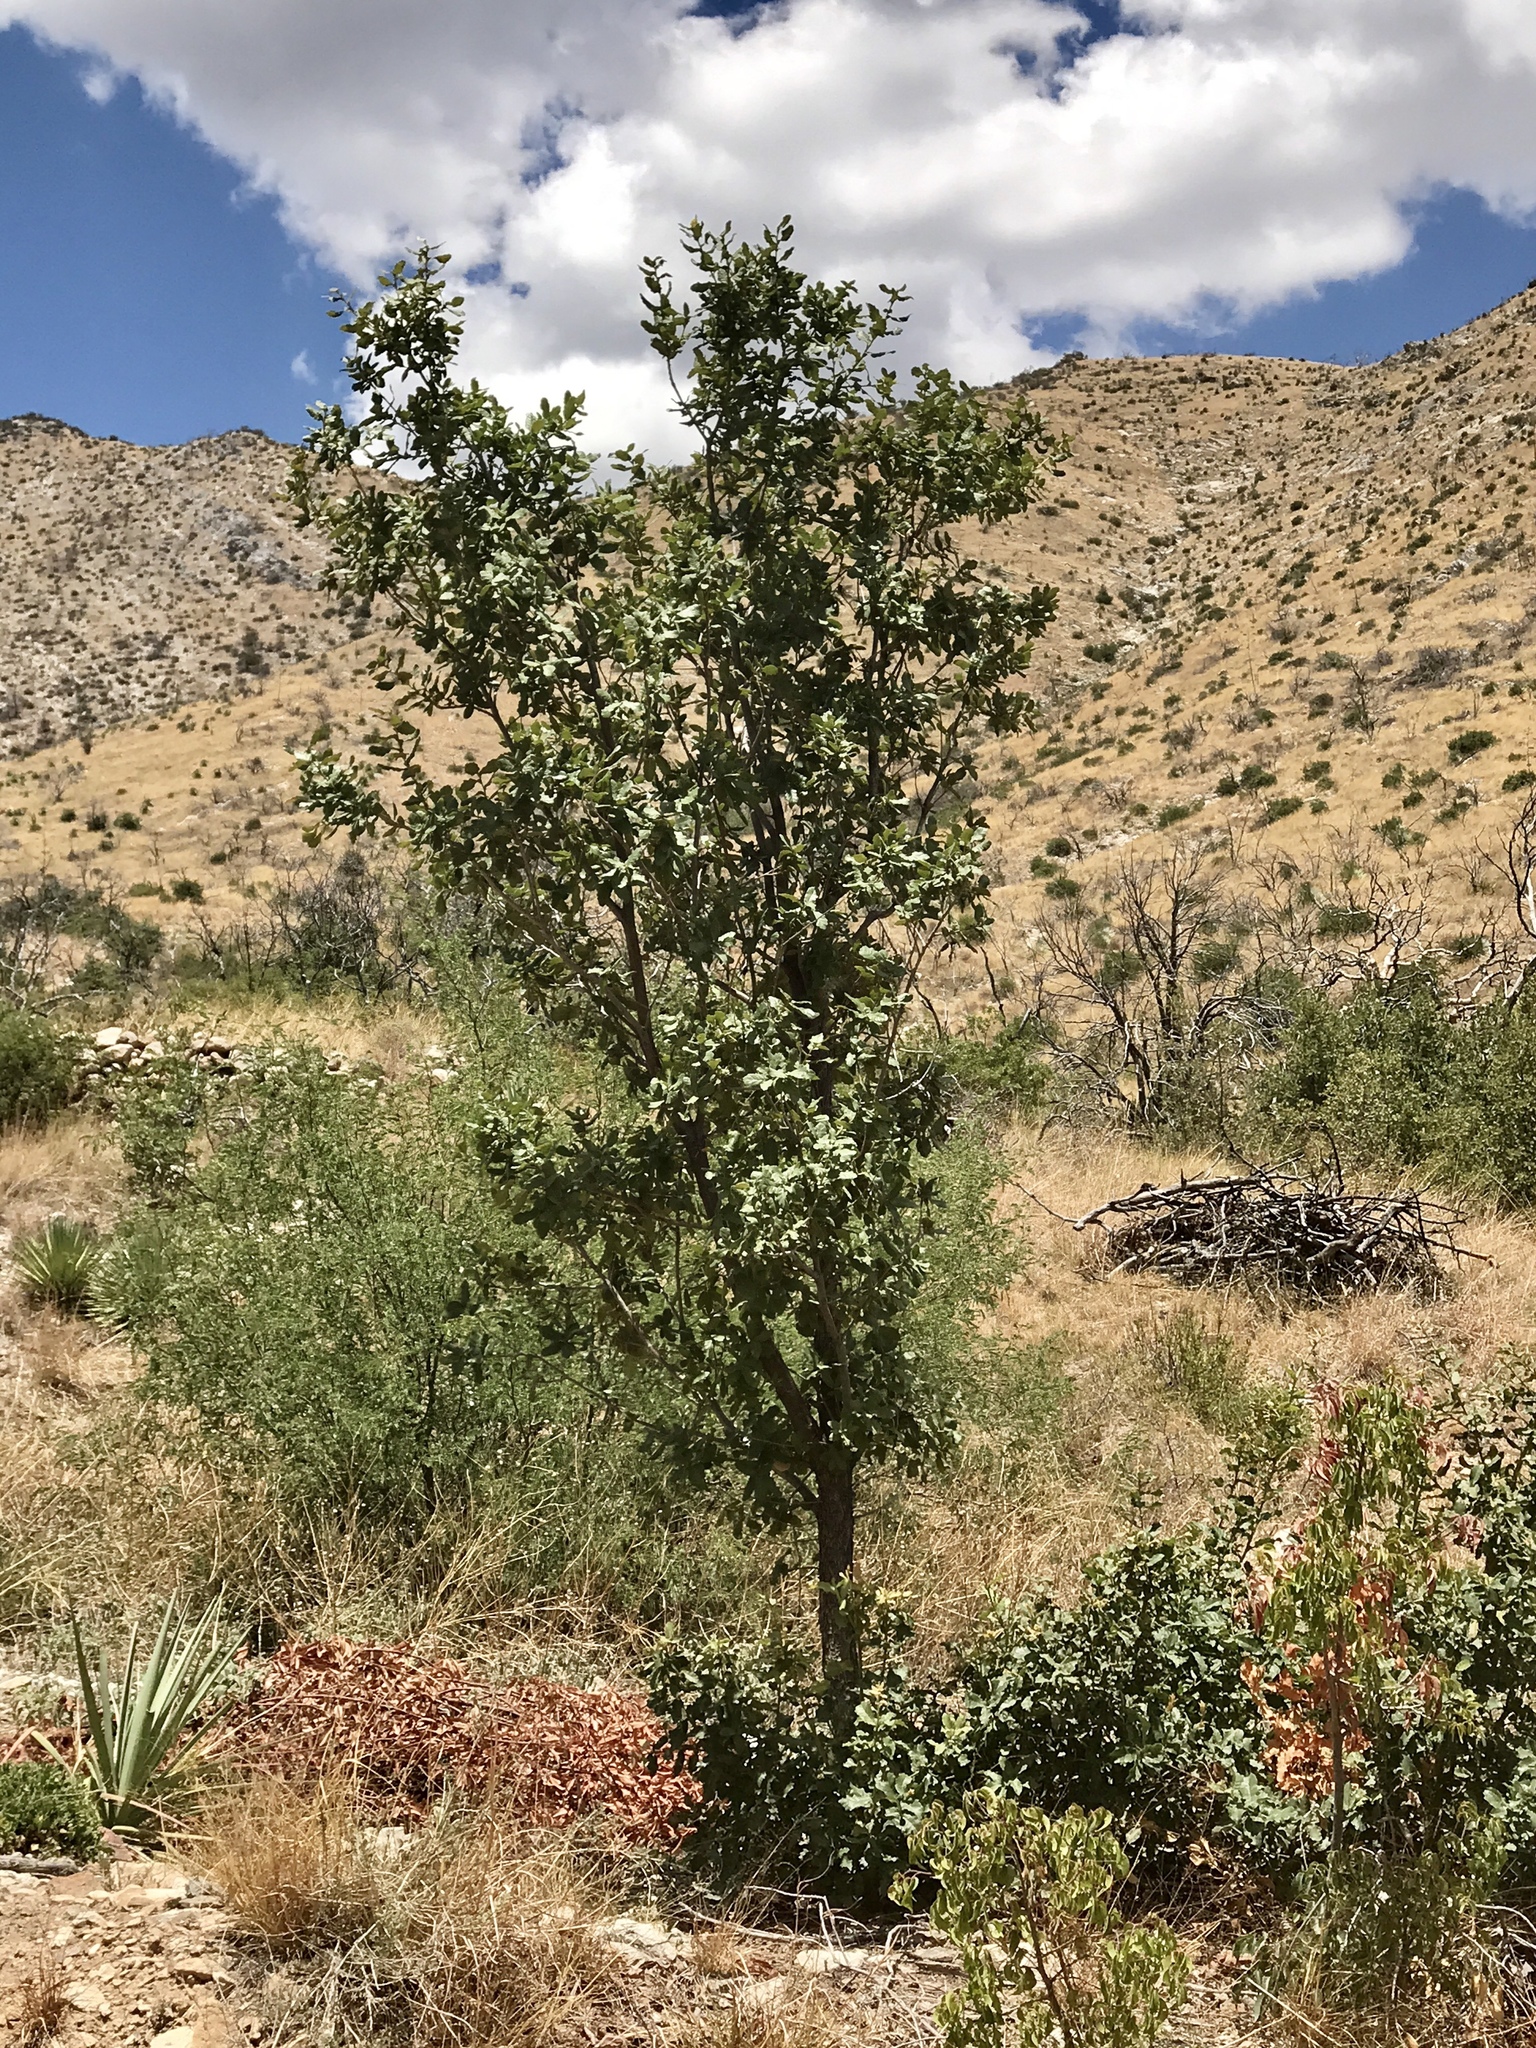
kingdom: Plantae
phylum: Tracheophyta
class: Magnoliopsida
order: Fagales
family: Fagaceae
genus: Quercus
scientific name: Quercus arizonica
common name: Arizona white oak
